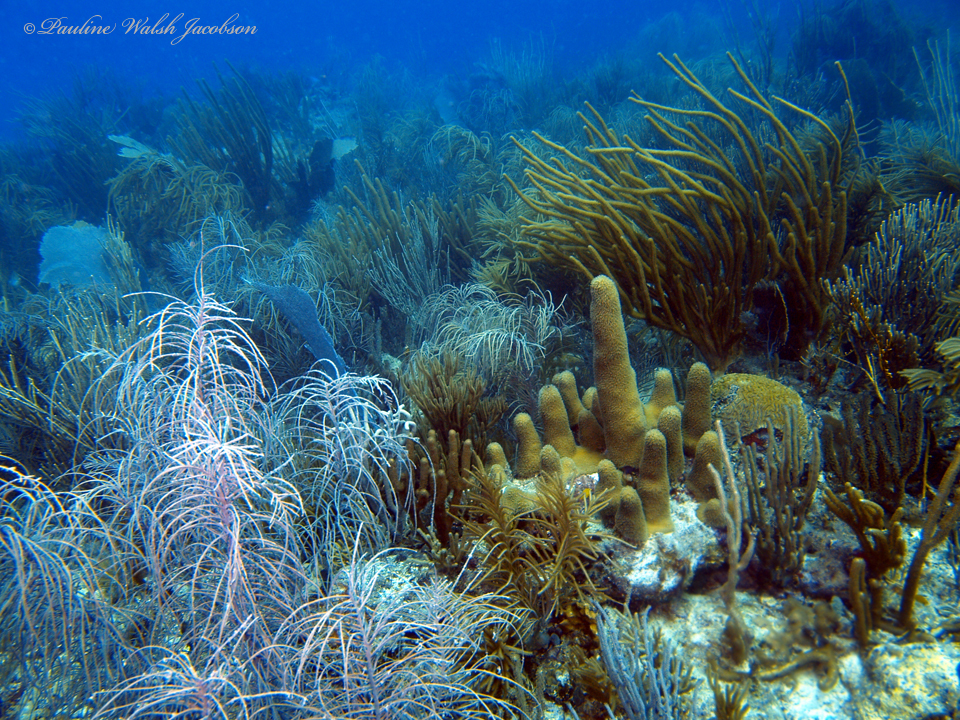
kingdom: Animalia
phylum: Cnidaria
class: Anthozoa
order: Scleractinia
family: Meandrinidae
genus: Dendrogyra
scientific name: Dendrogyra cylindrus
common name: Pillar coral
